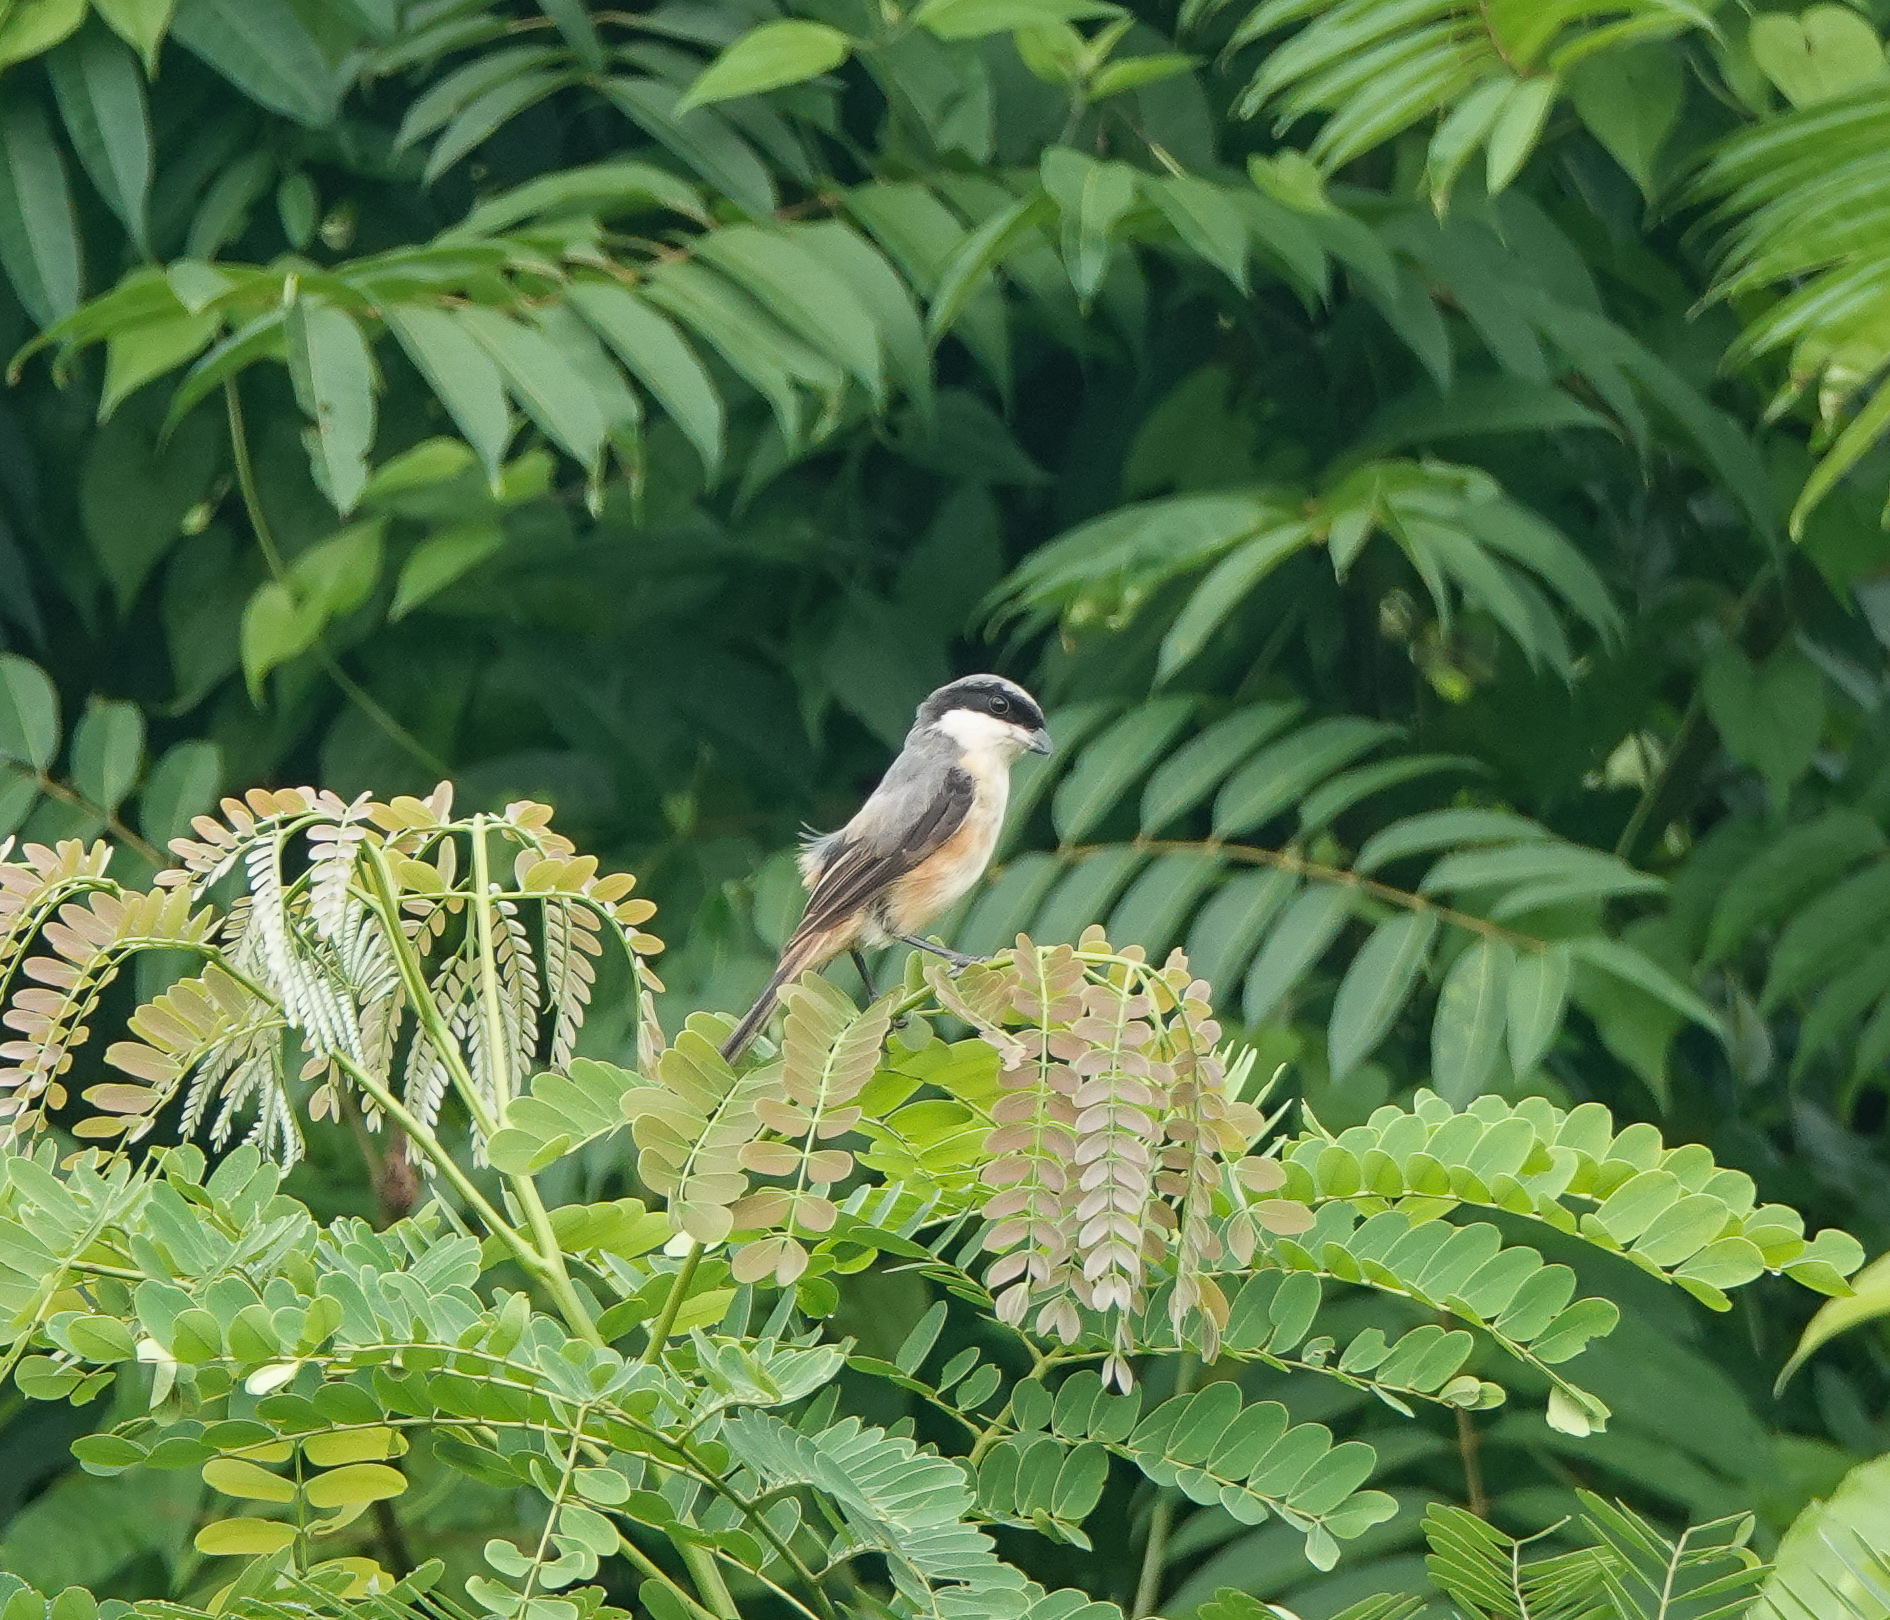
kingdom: Animalia
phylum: Chordata
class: Aves
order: Passeriformes
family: Laniidae
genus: Lanius
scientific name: Lanius tephronotus
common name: Grey-backed shrike
